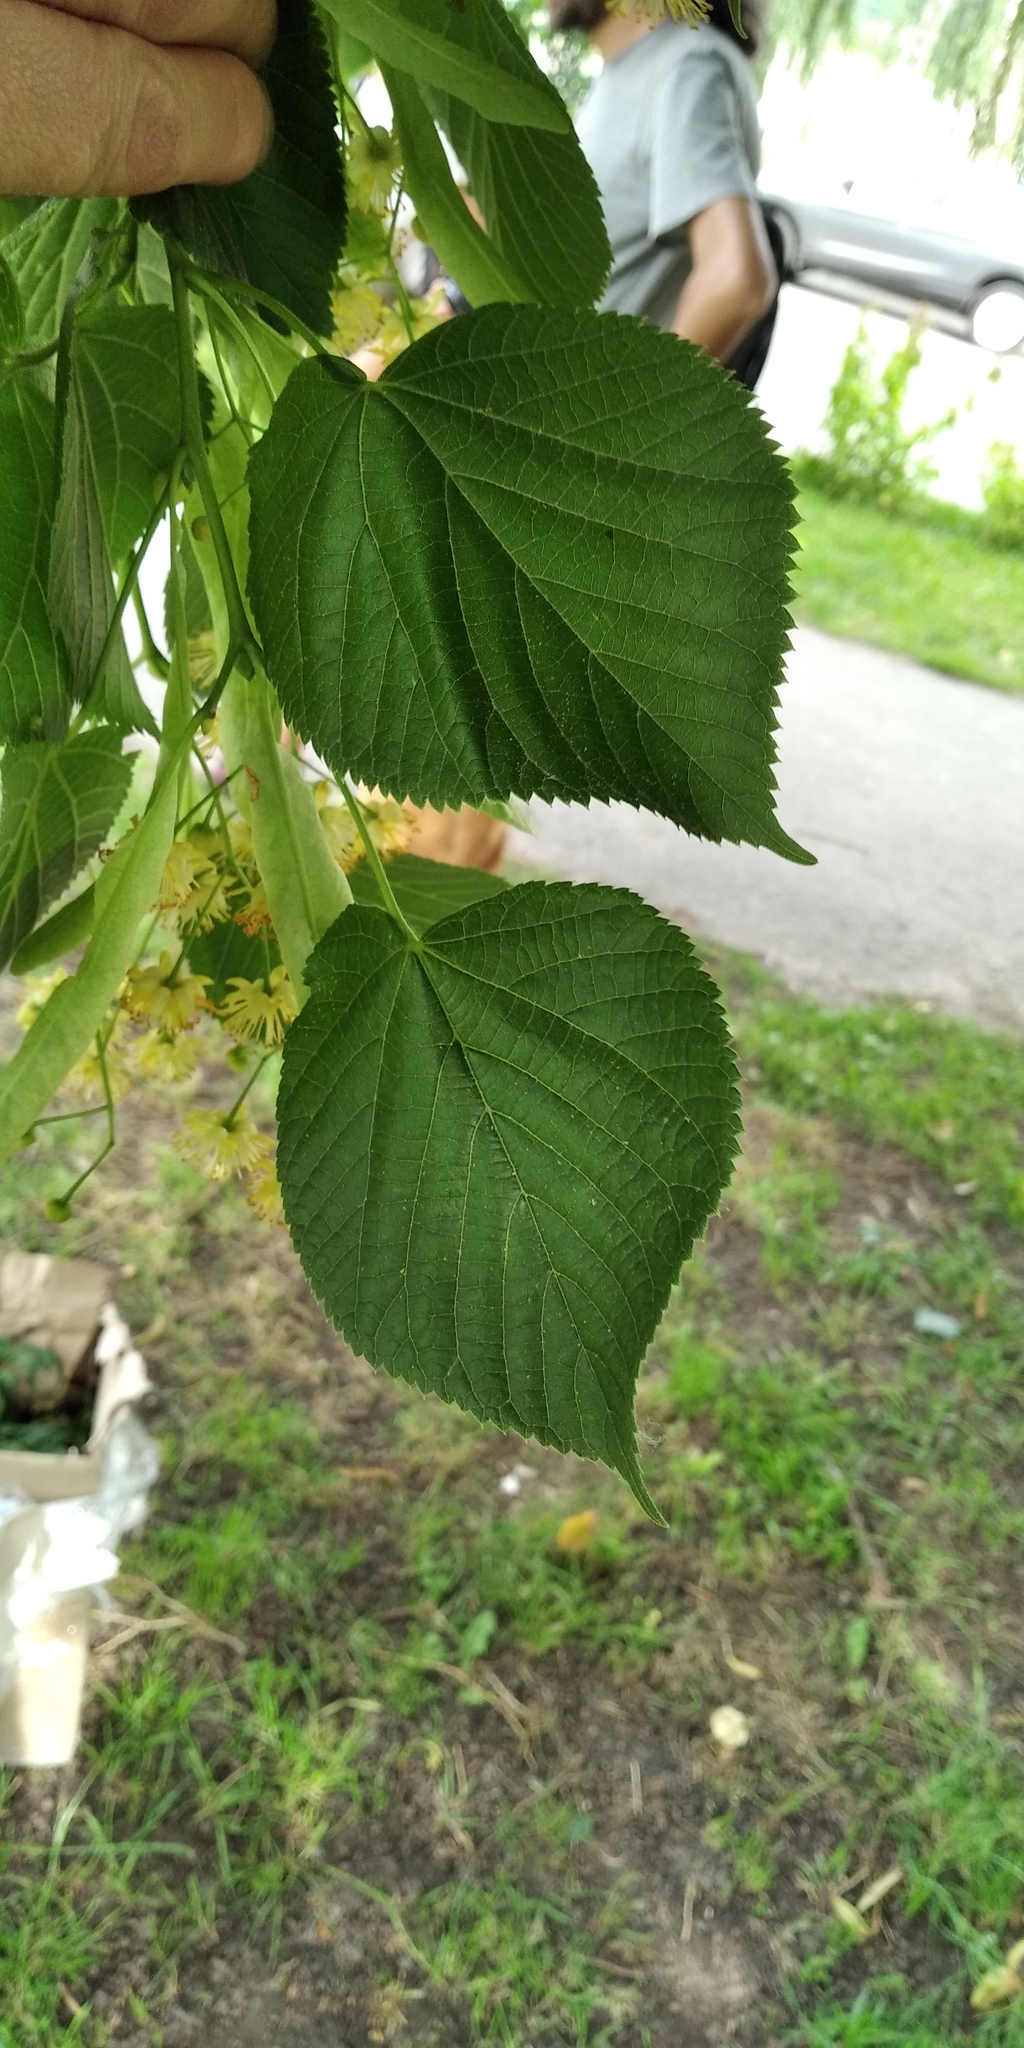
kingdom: Plantae
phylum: Tracheophyta
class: Magnoliopsida
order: Malvales
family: Malvaceae
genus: Tilia
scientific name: Tilia platyphyllos
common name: Large-leaved lime
